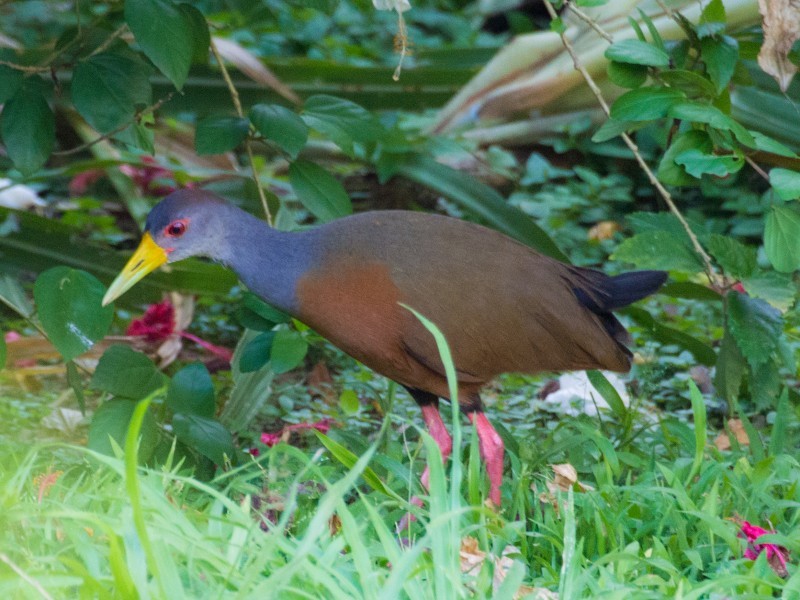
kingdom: Animalia
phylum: Chordata
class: Aves
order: Gruiformes
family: Rallidae
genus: Aramides
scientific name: Aramides cajanea
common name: Gray-necked wood-rail
